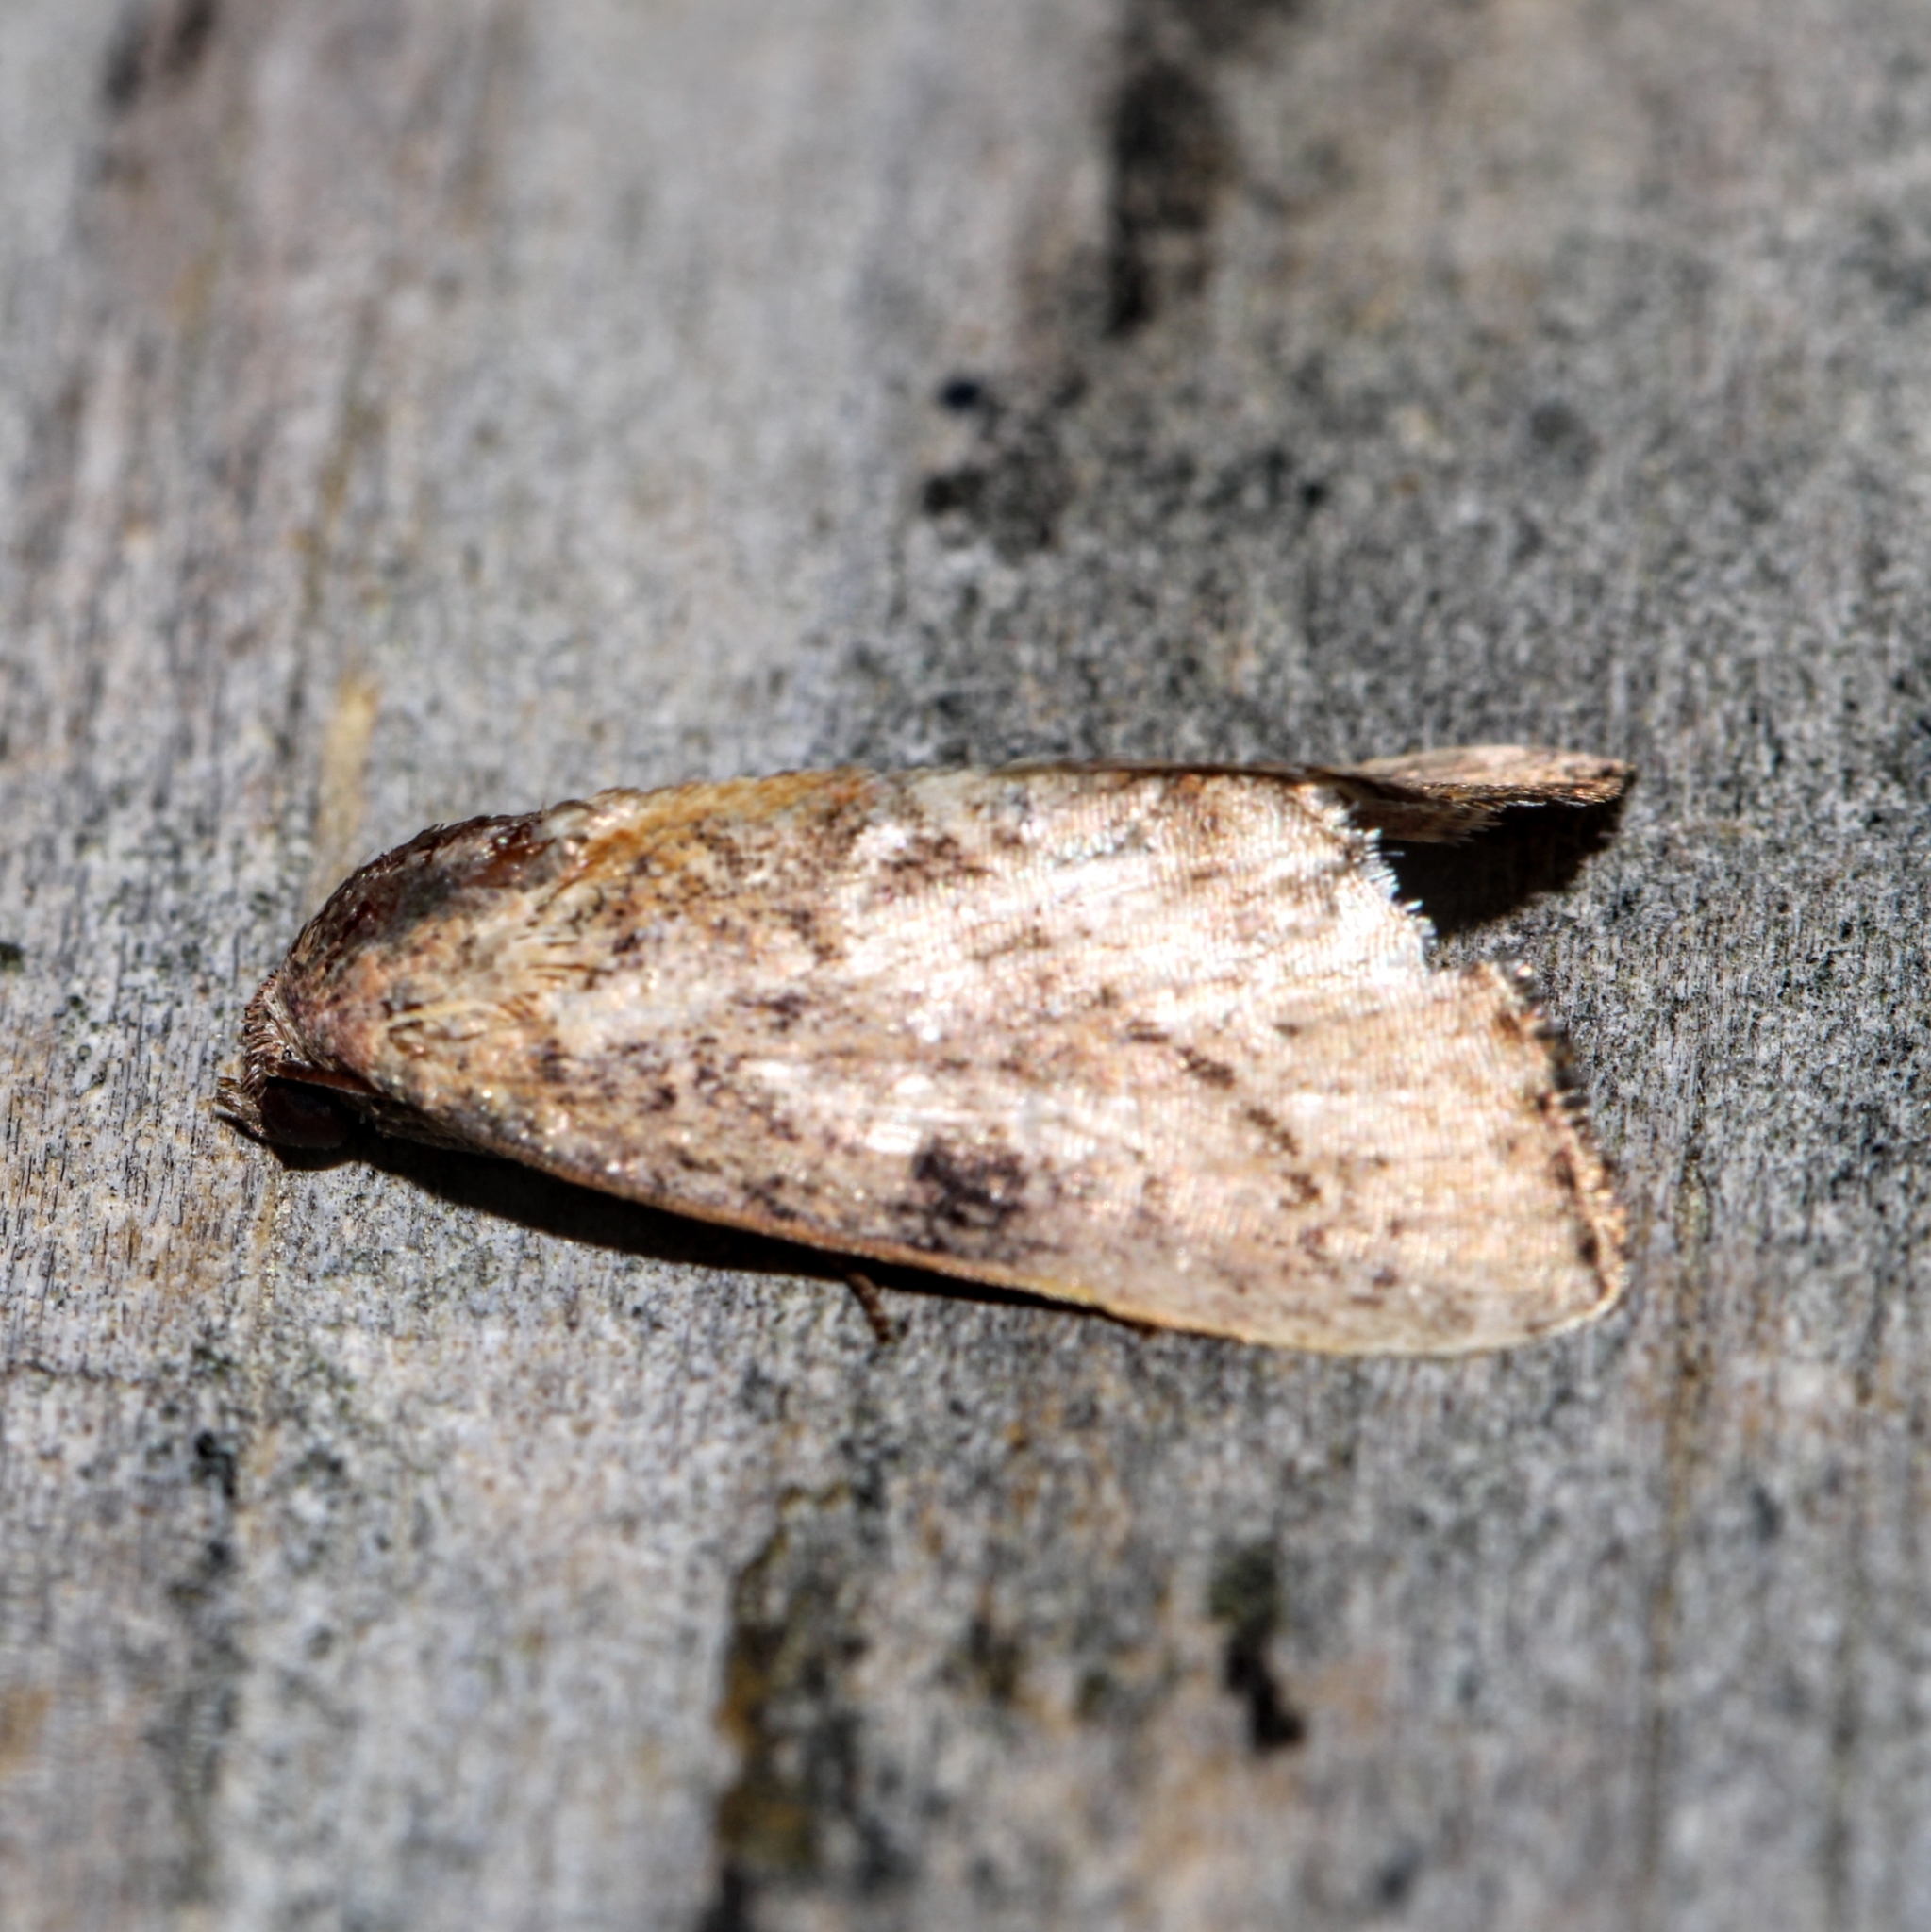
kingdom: Animalia
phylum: Arthropoda
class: Insecta
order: Lepidoptera
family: Noctuidae
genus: Galgula
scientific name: Galgula partita
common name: Wedgeling
